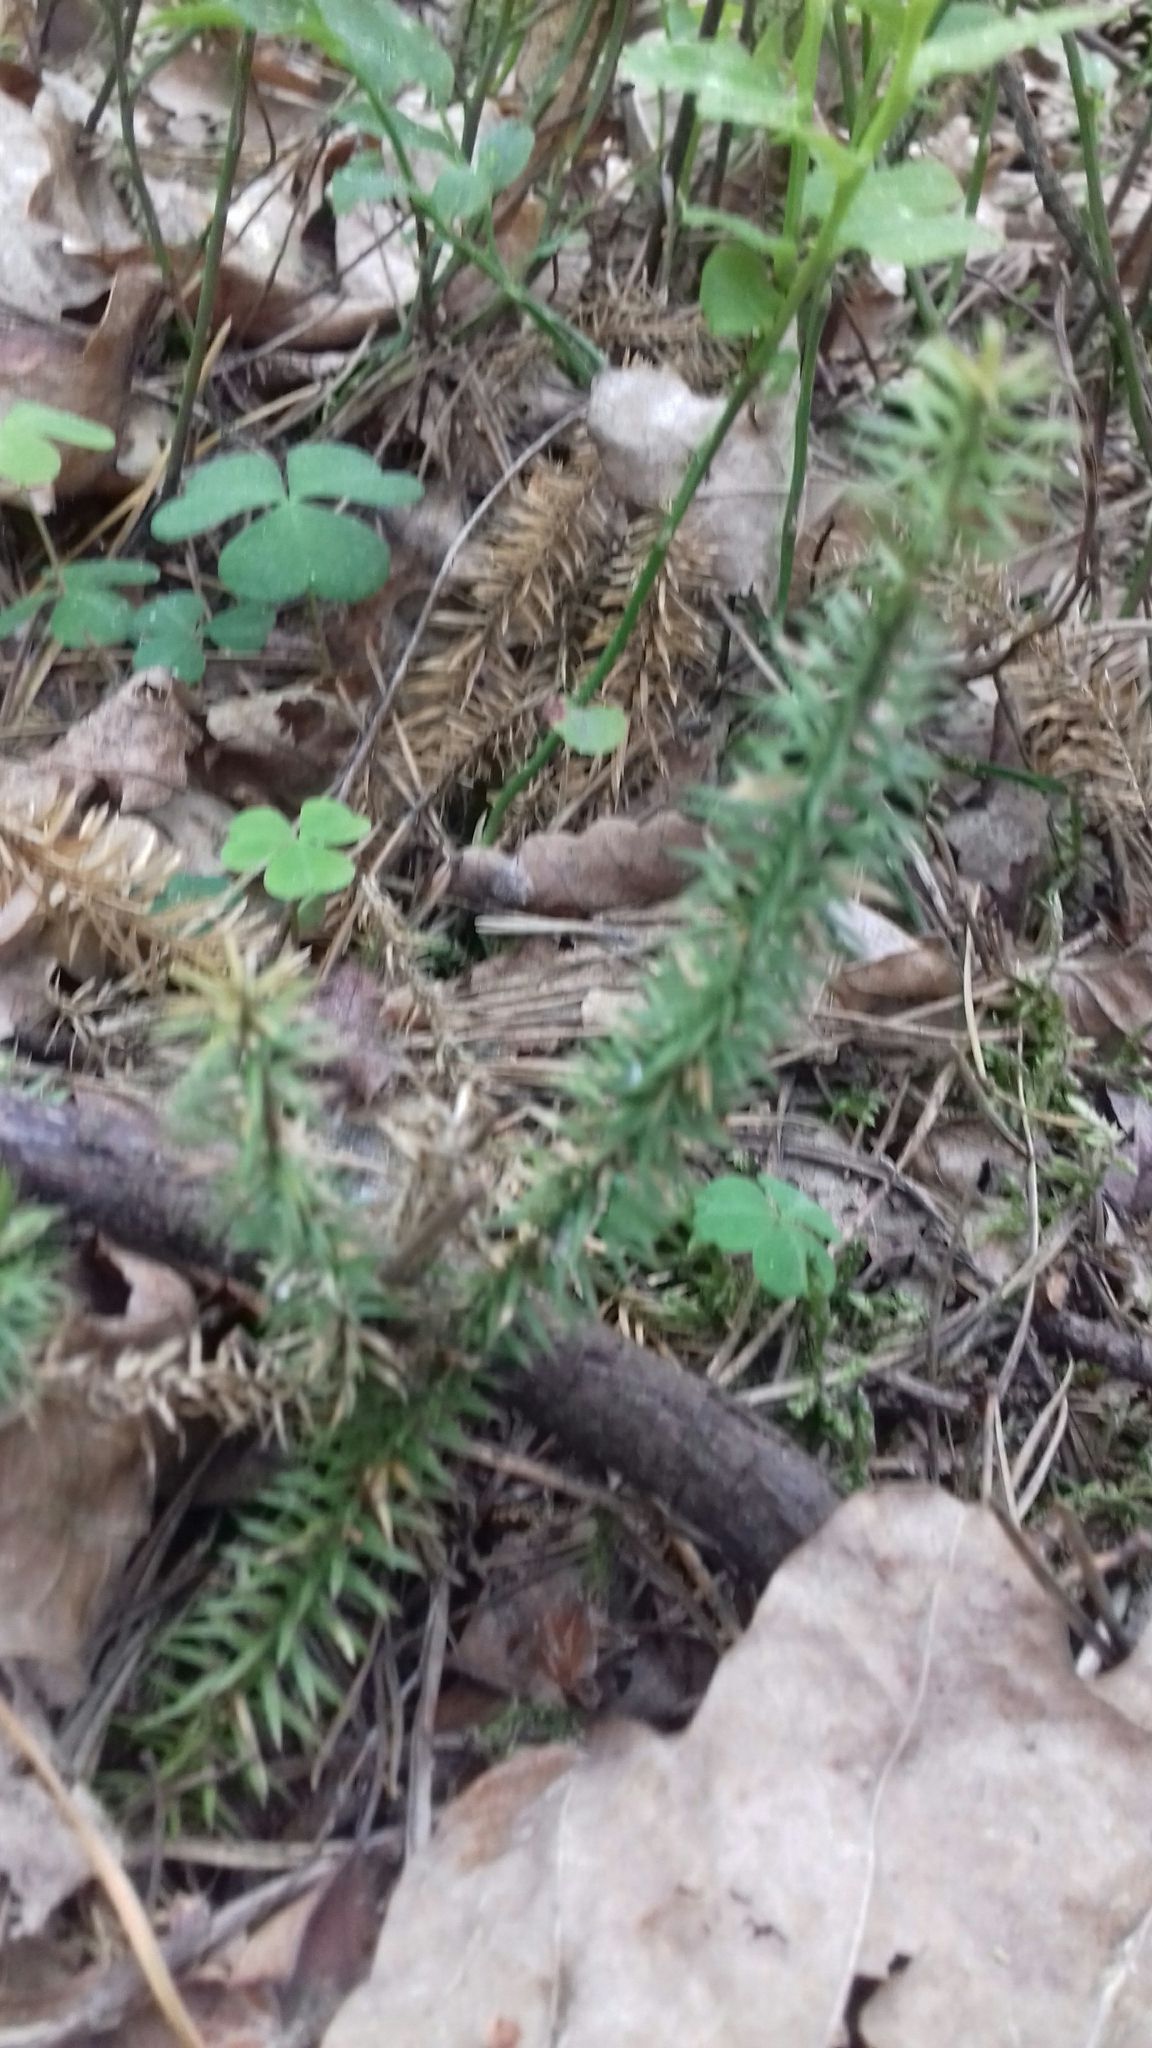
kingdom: Plantae
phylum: Tracheophyta
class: Lycopodiopsida
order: Lycopodiales
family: Lycopodiaceae
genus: Spinulum
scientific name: Spinulum annotinum
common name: Interrupted club-moss
